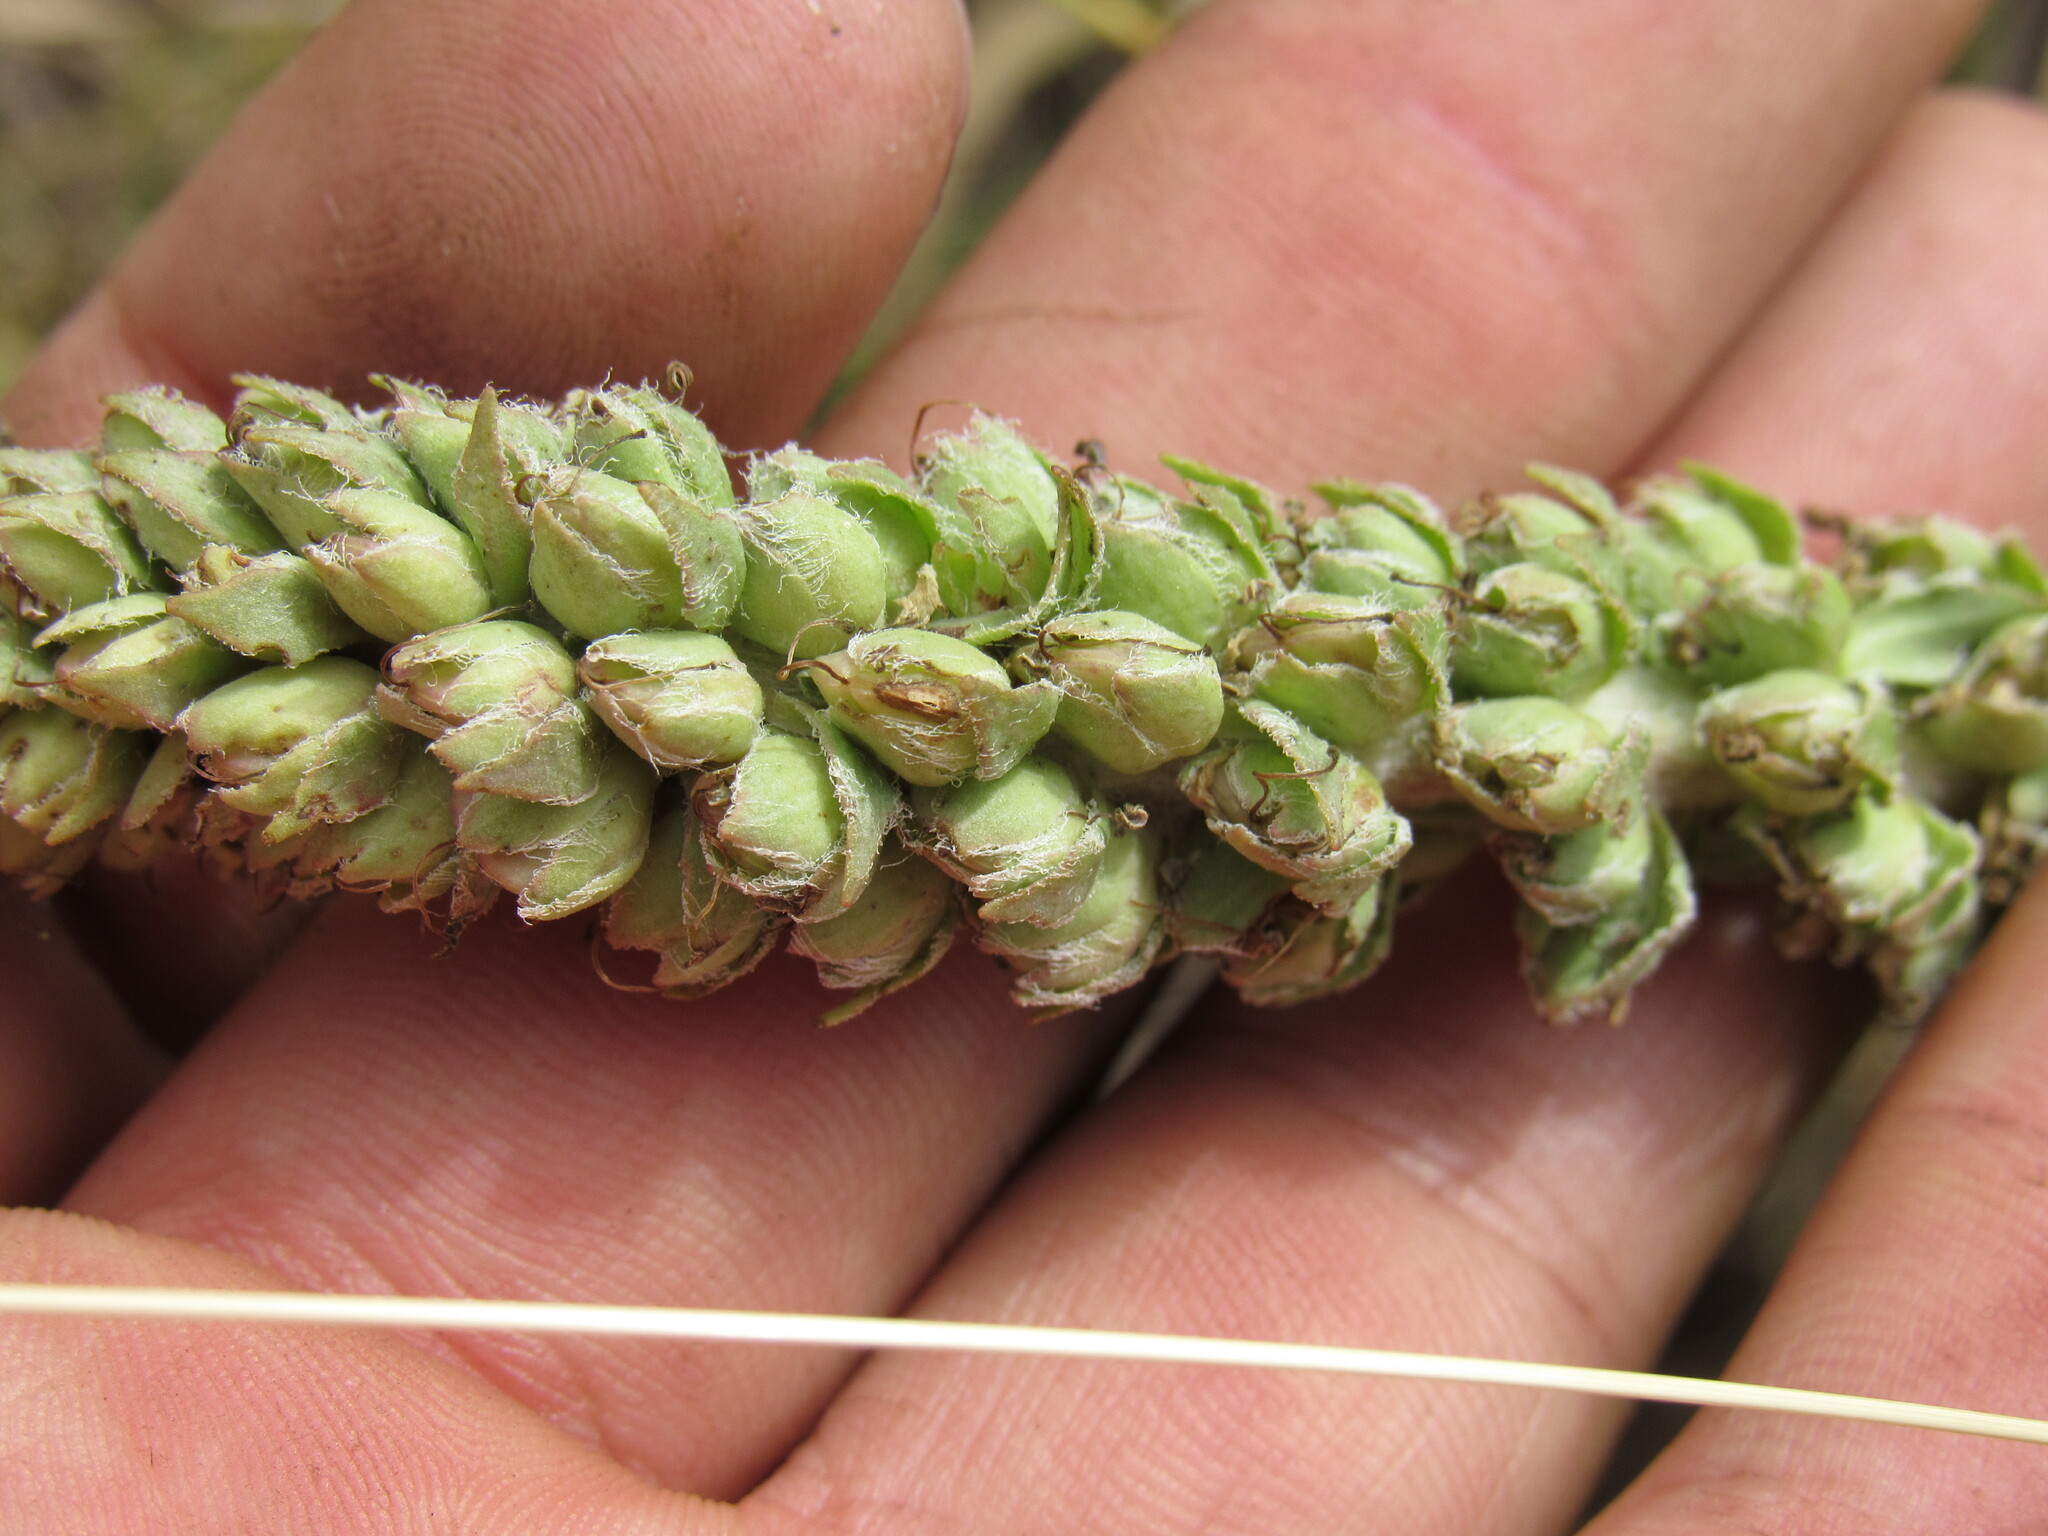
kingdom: Plantae
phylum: Tracheophyta
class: Magnoliopsida
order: Lamiales
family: Plantaginaceae
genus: Veronica
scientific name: Veronica plantaginea
